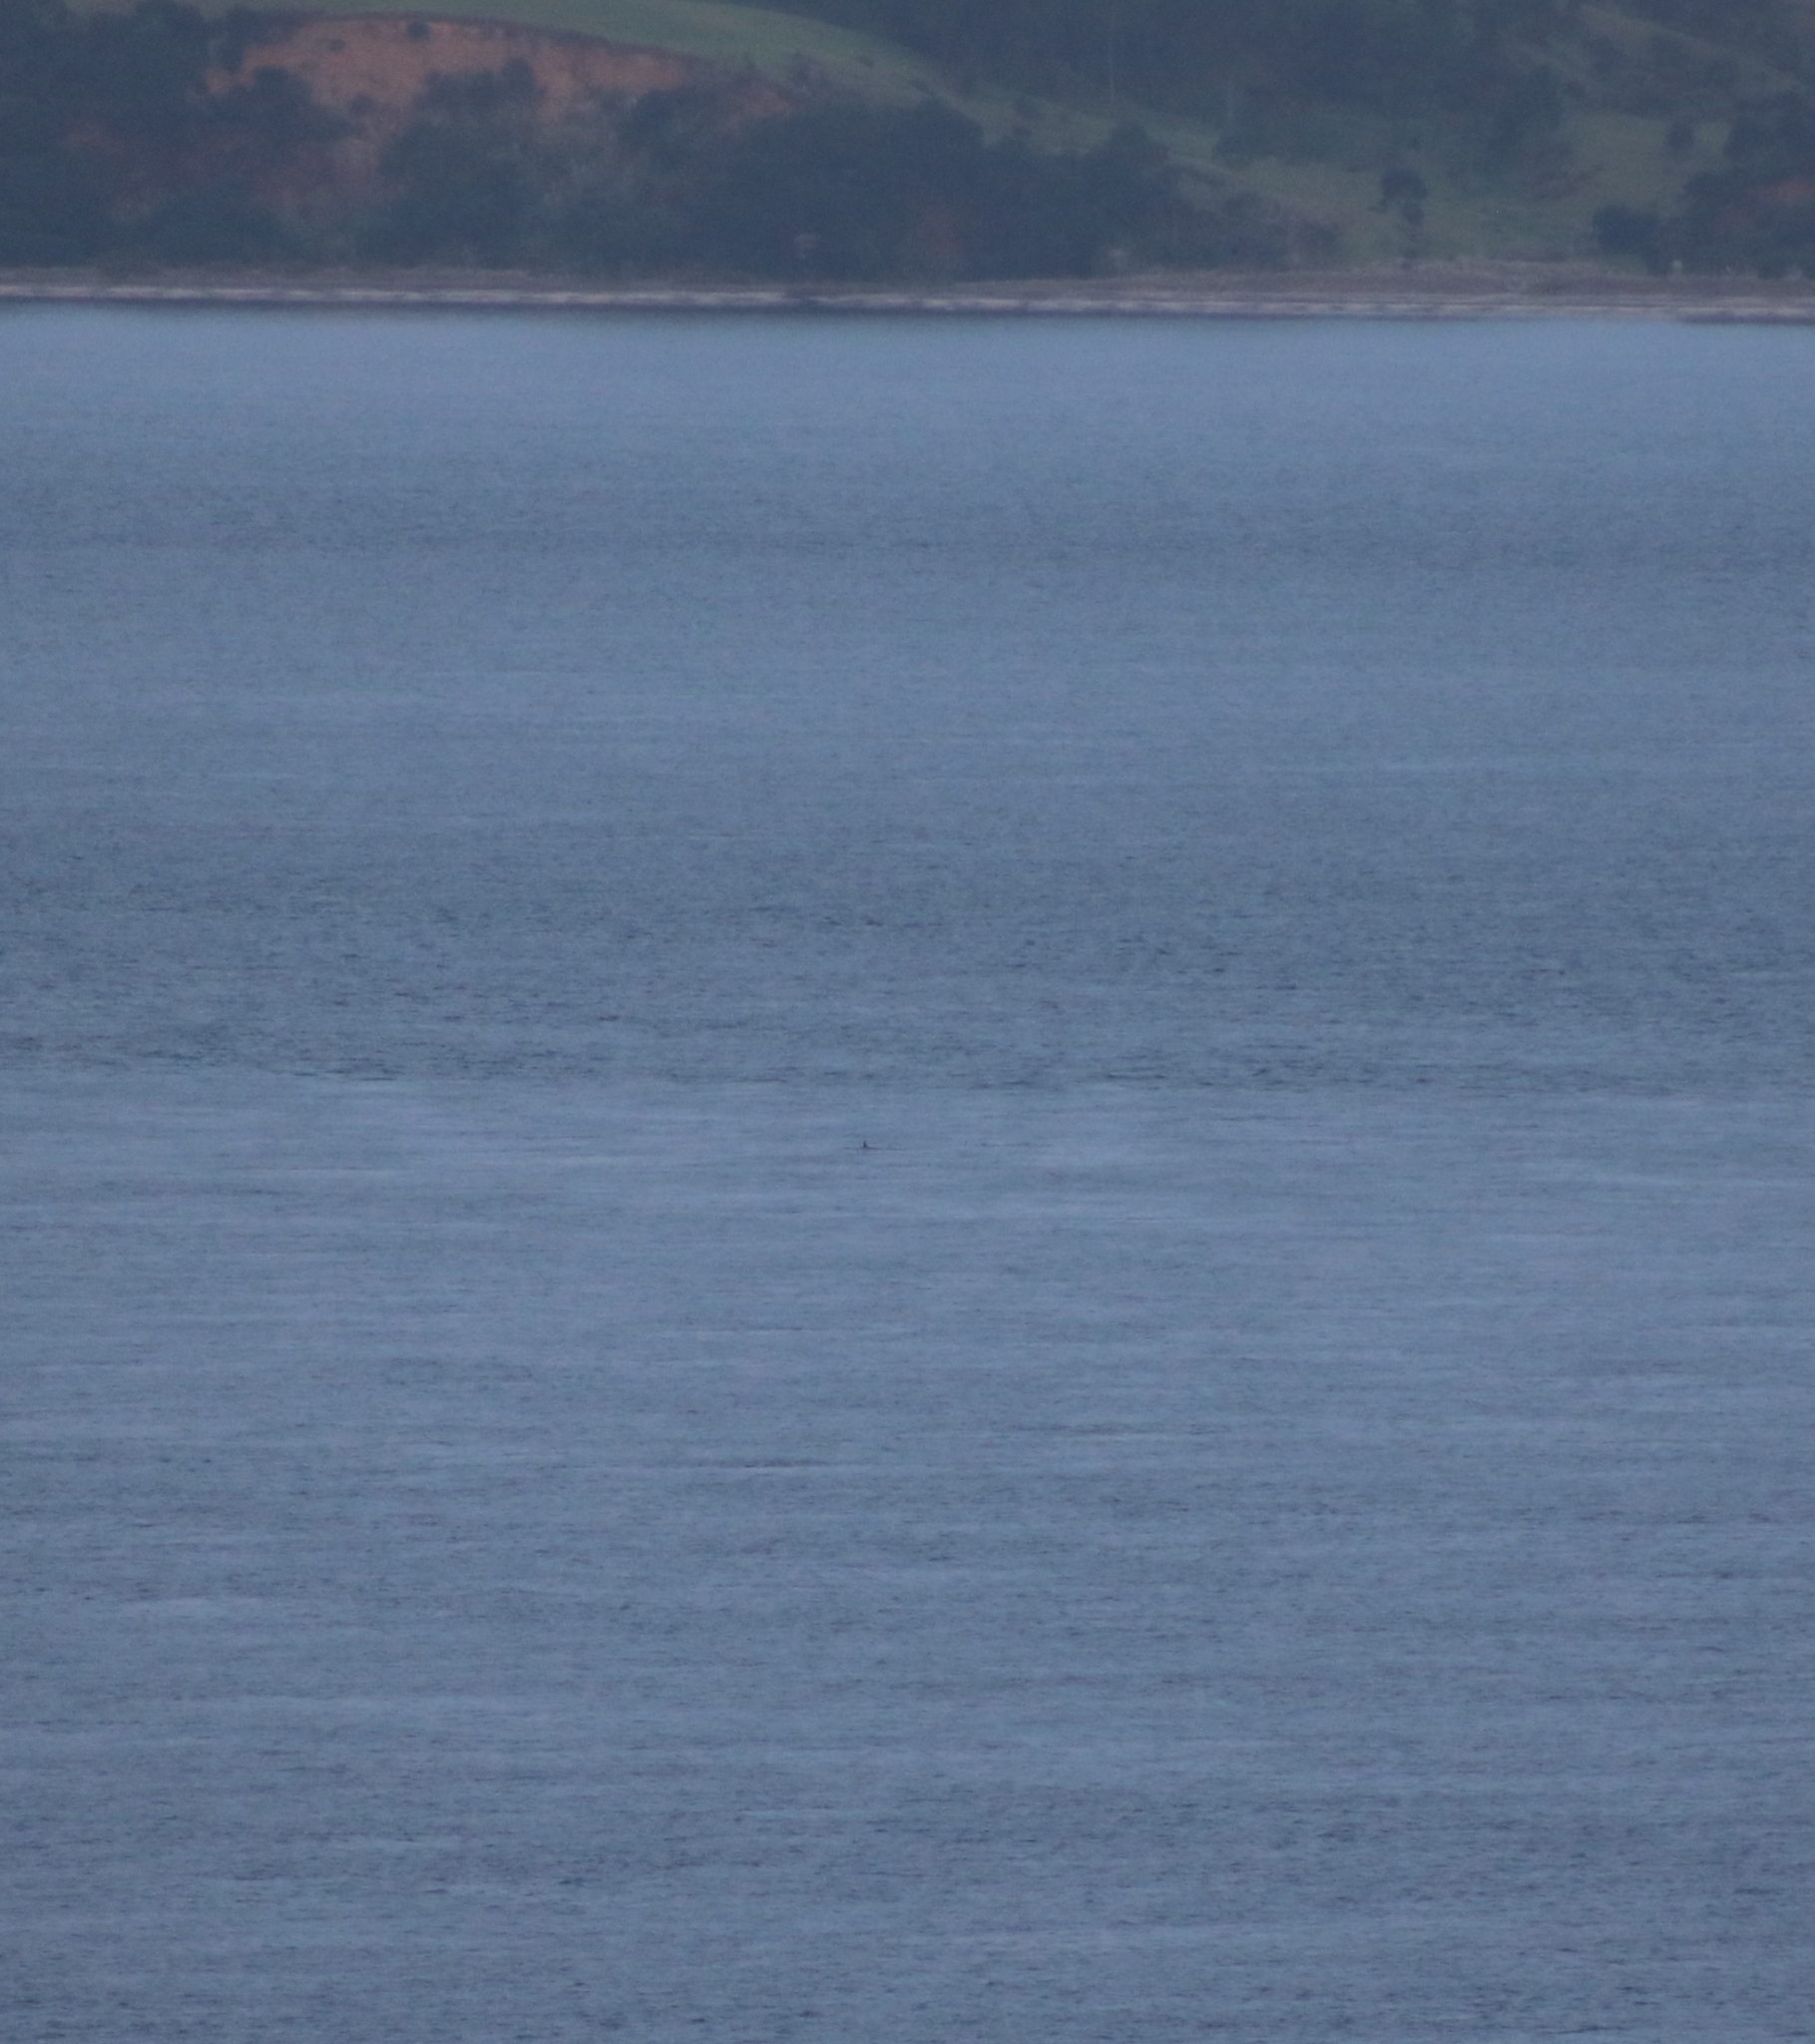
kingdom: Animalia
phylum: Chordata
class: Mammalia
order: Cetacea
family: Delphinidae
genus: Orcinus
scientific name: Orcinus orca
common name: Killer whale
